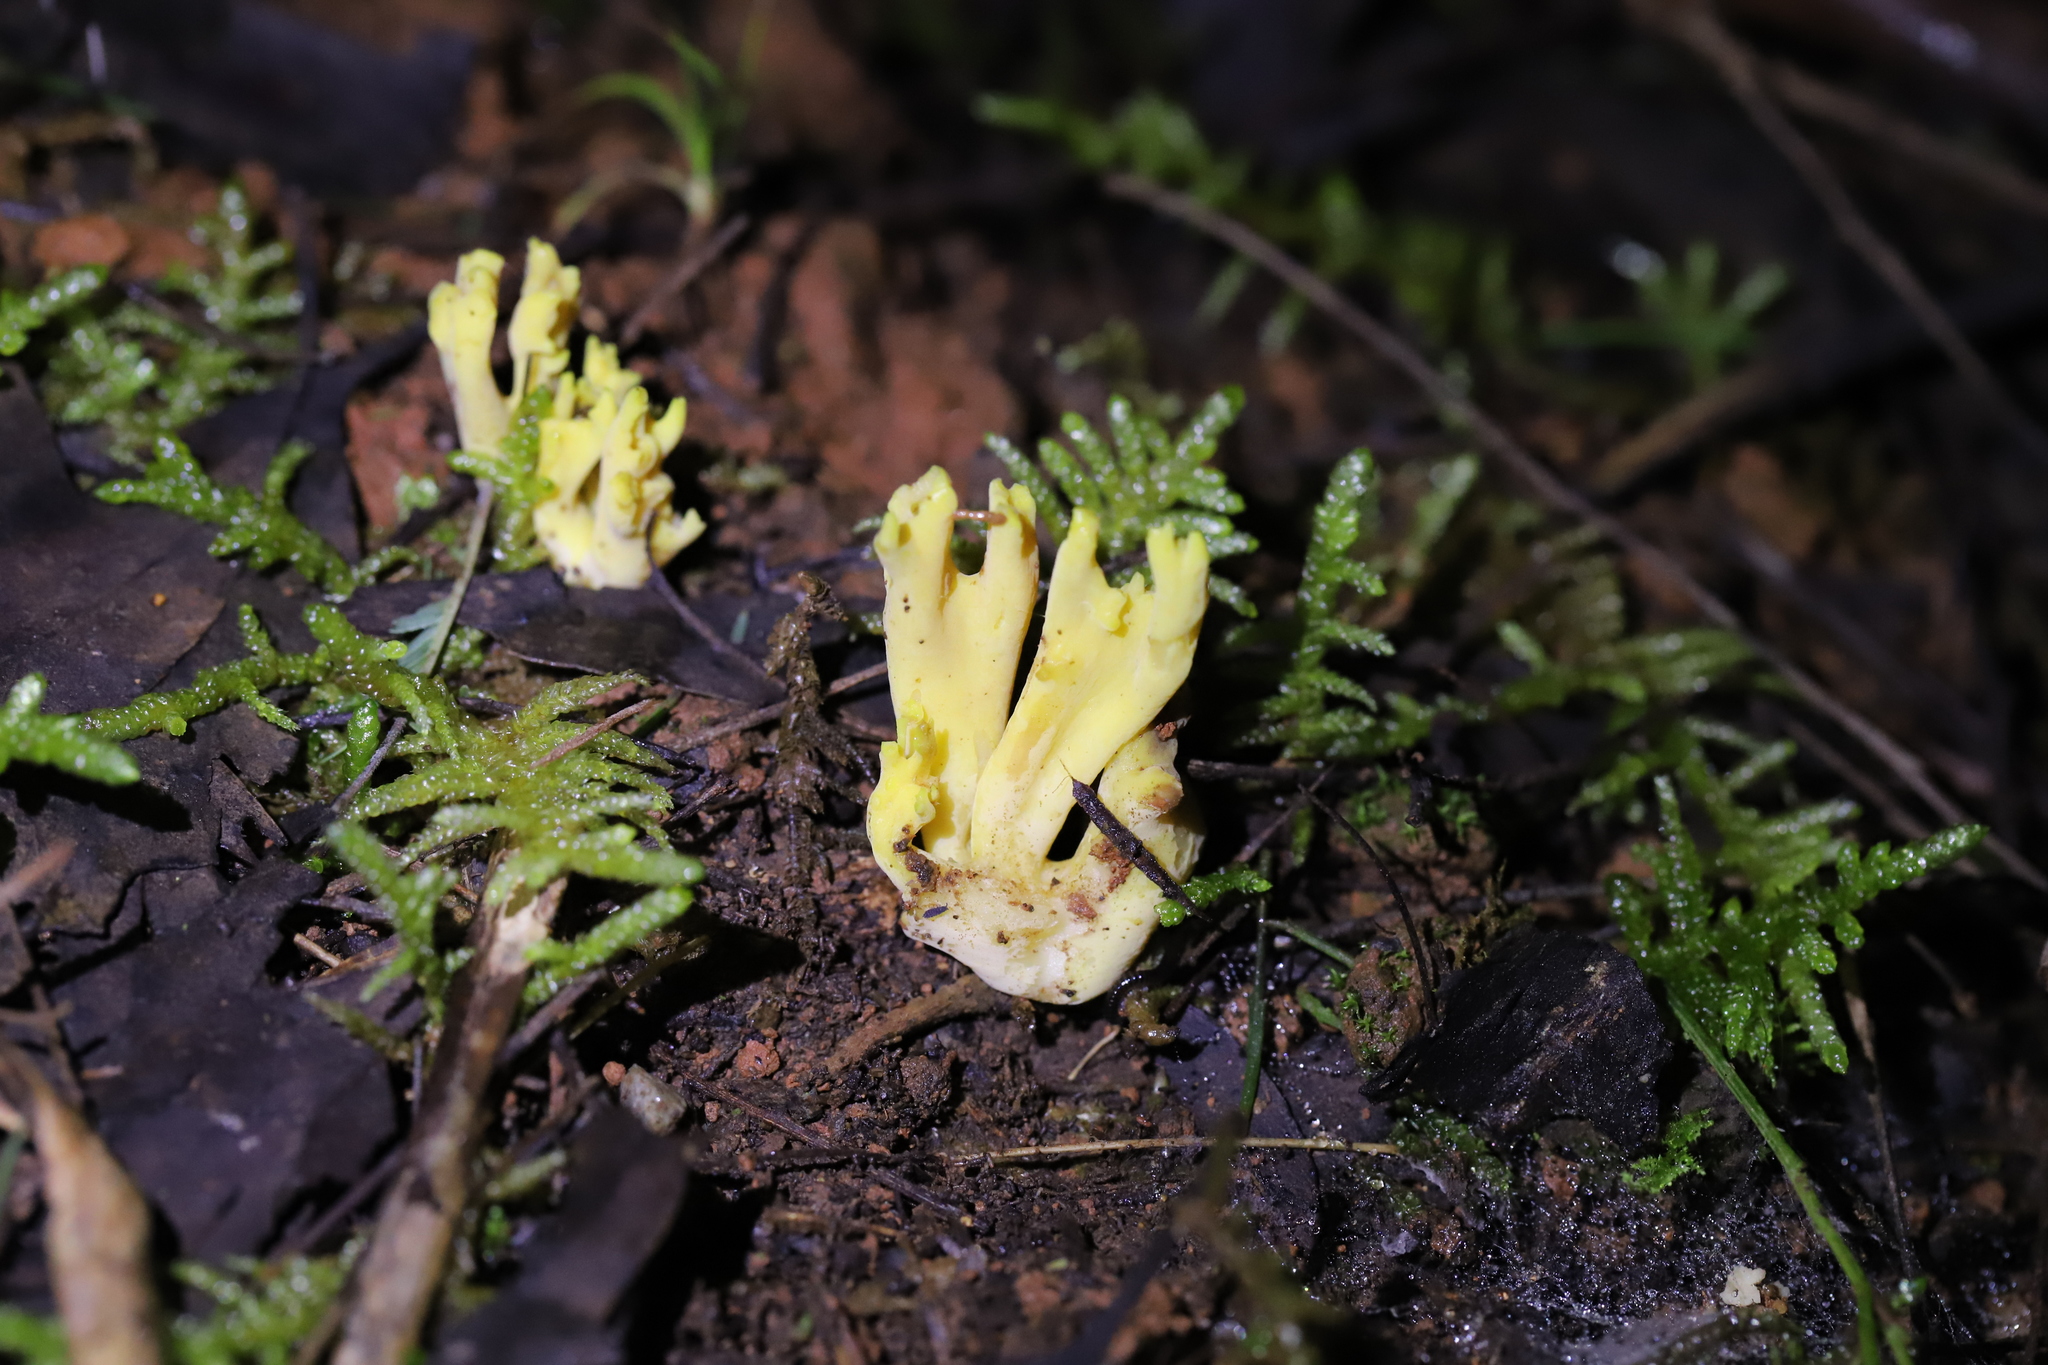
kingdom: Fungi
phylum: Basidiomycota
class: Agaricomycetes
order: Gomphales
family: Gomphaceae
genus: Ramaria
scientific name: Ramaria lorithamnus
